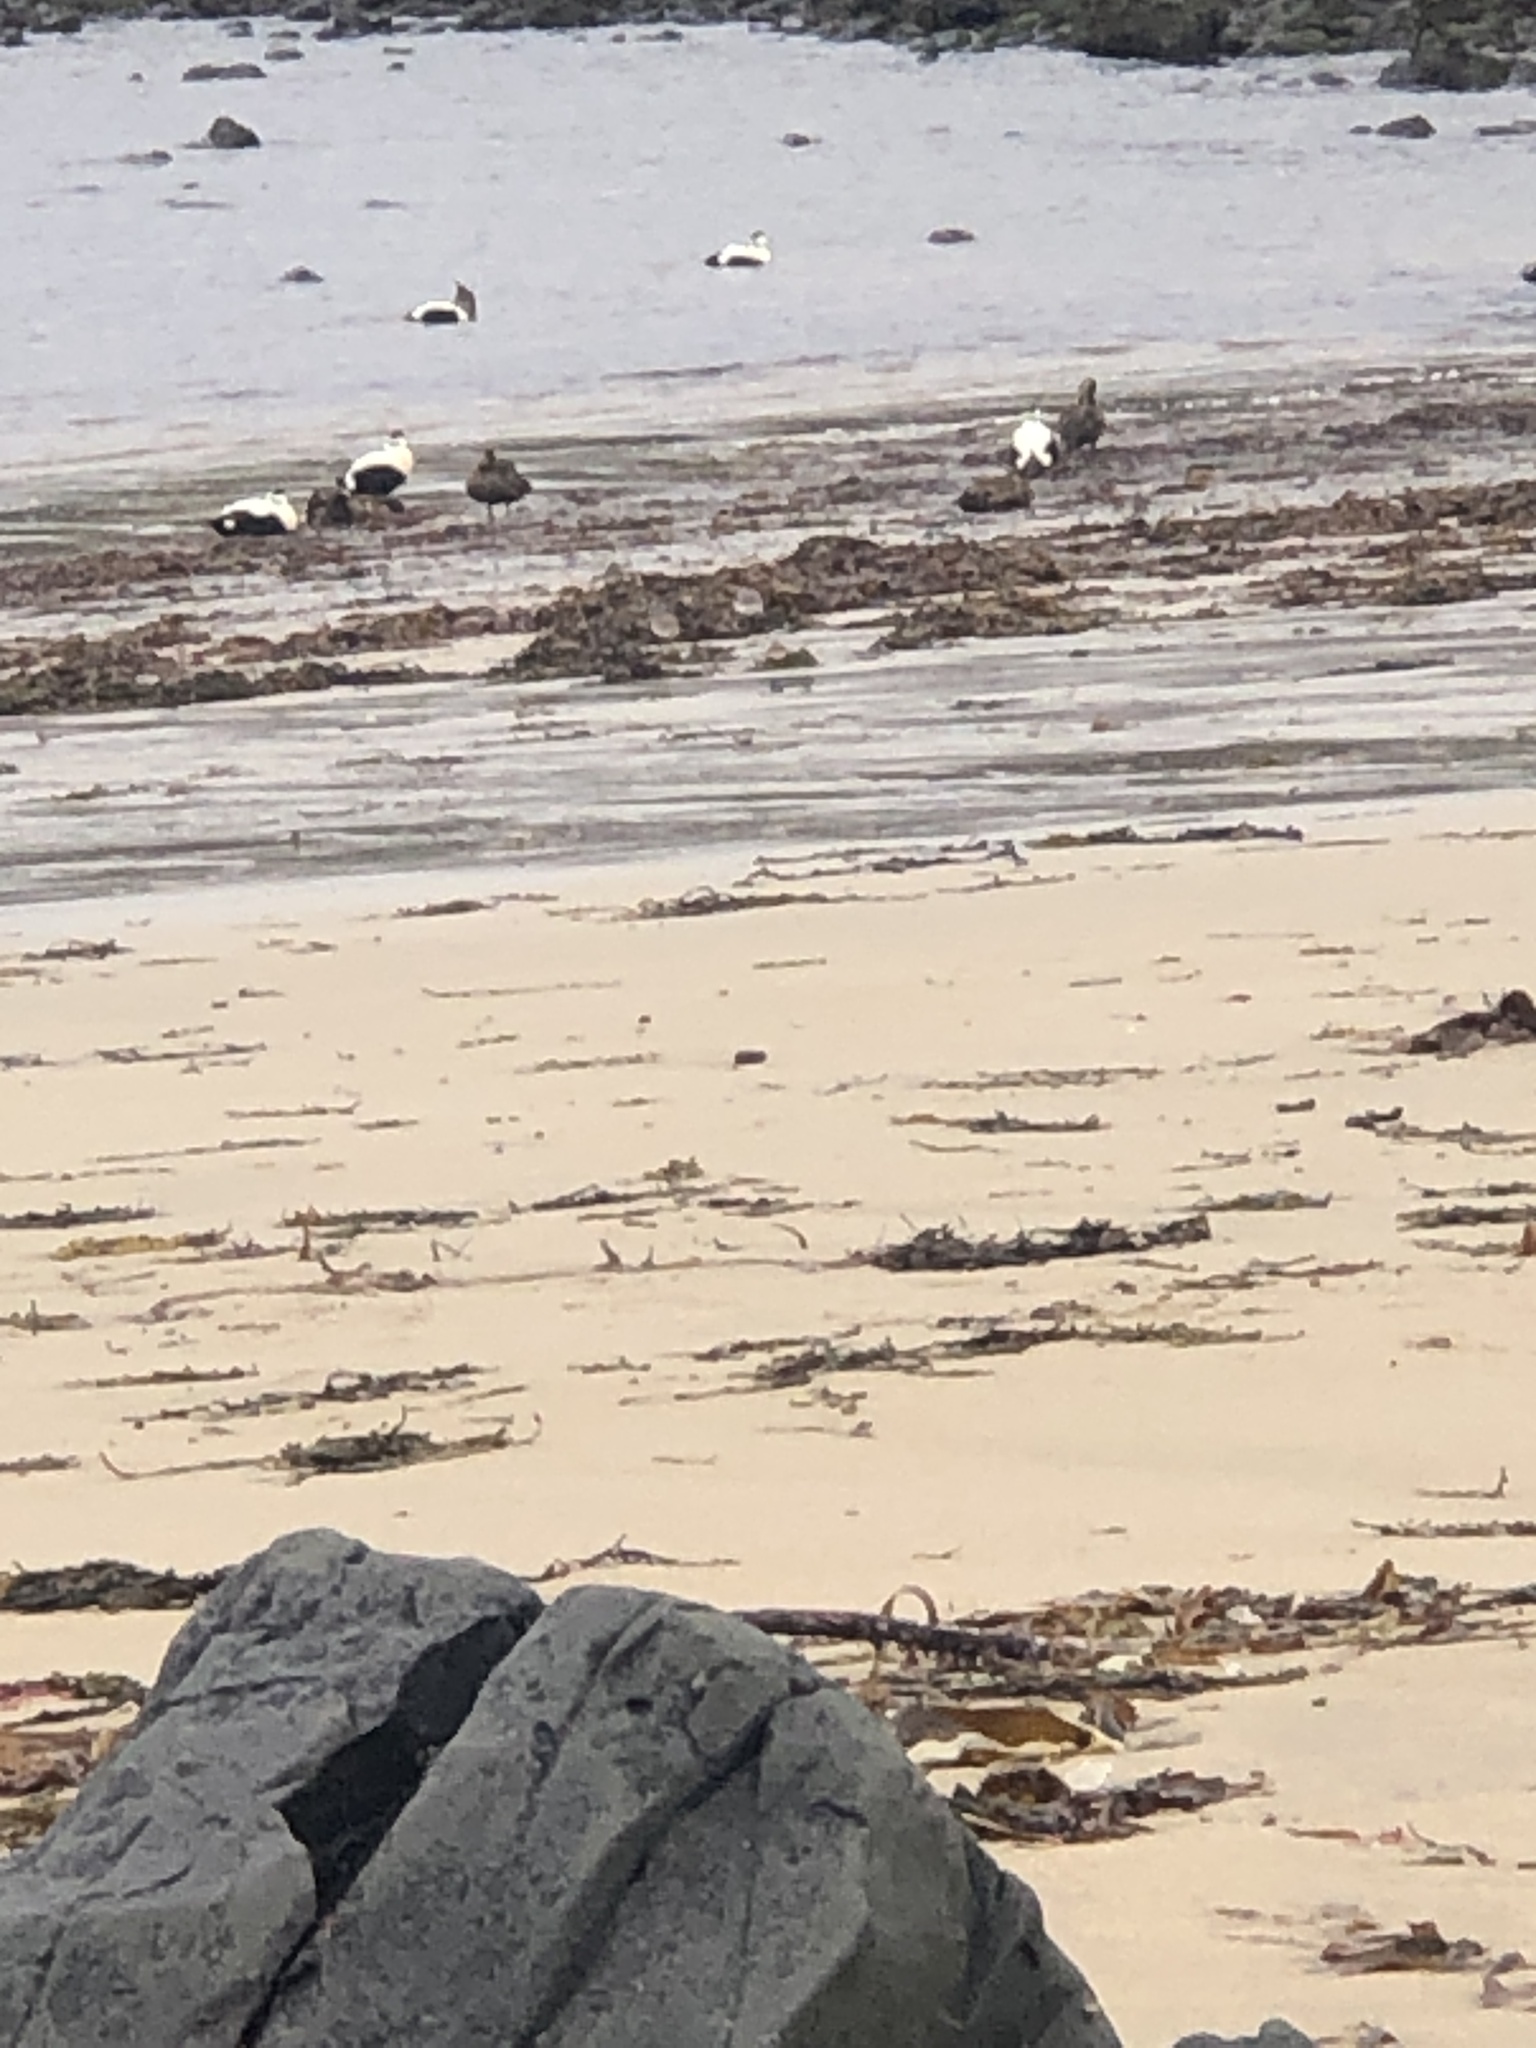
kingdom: Animalia
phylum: Chordata
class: Aves
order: Anseriformes
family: Anatidae
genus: Somateria
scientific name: Somateria mollissima
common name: Common eider
